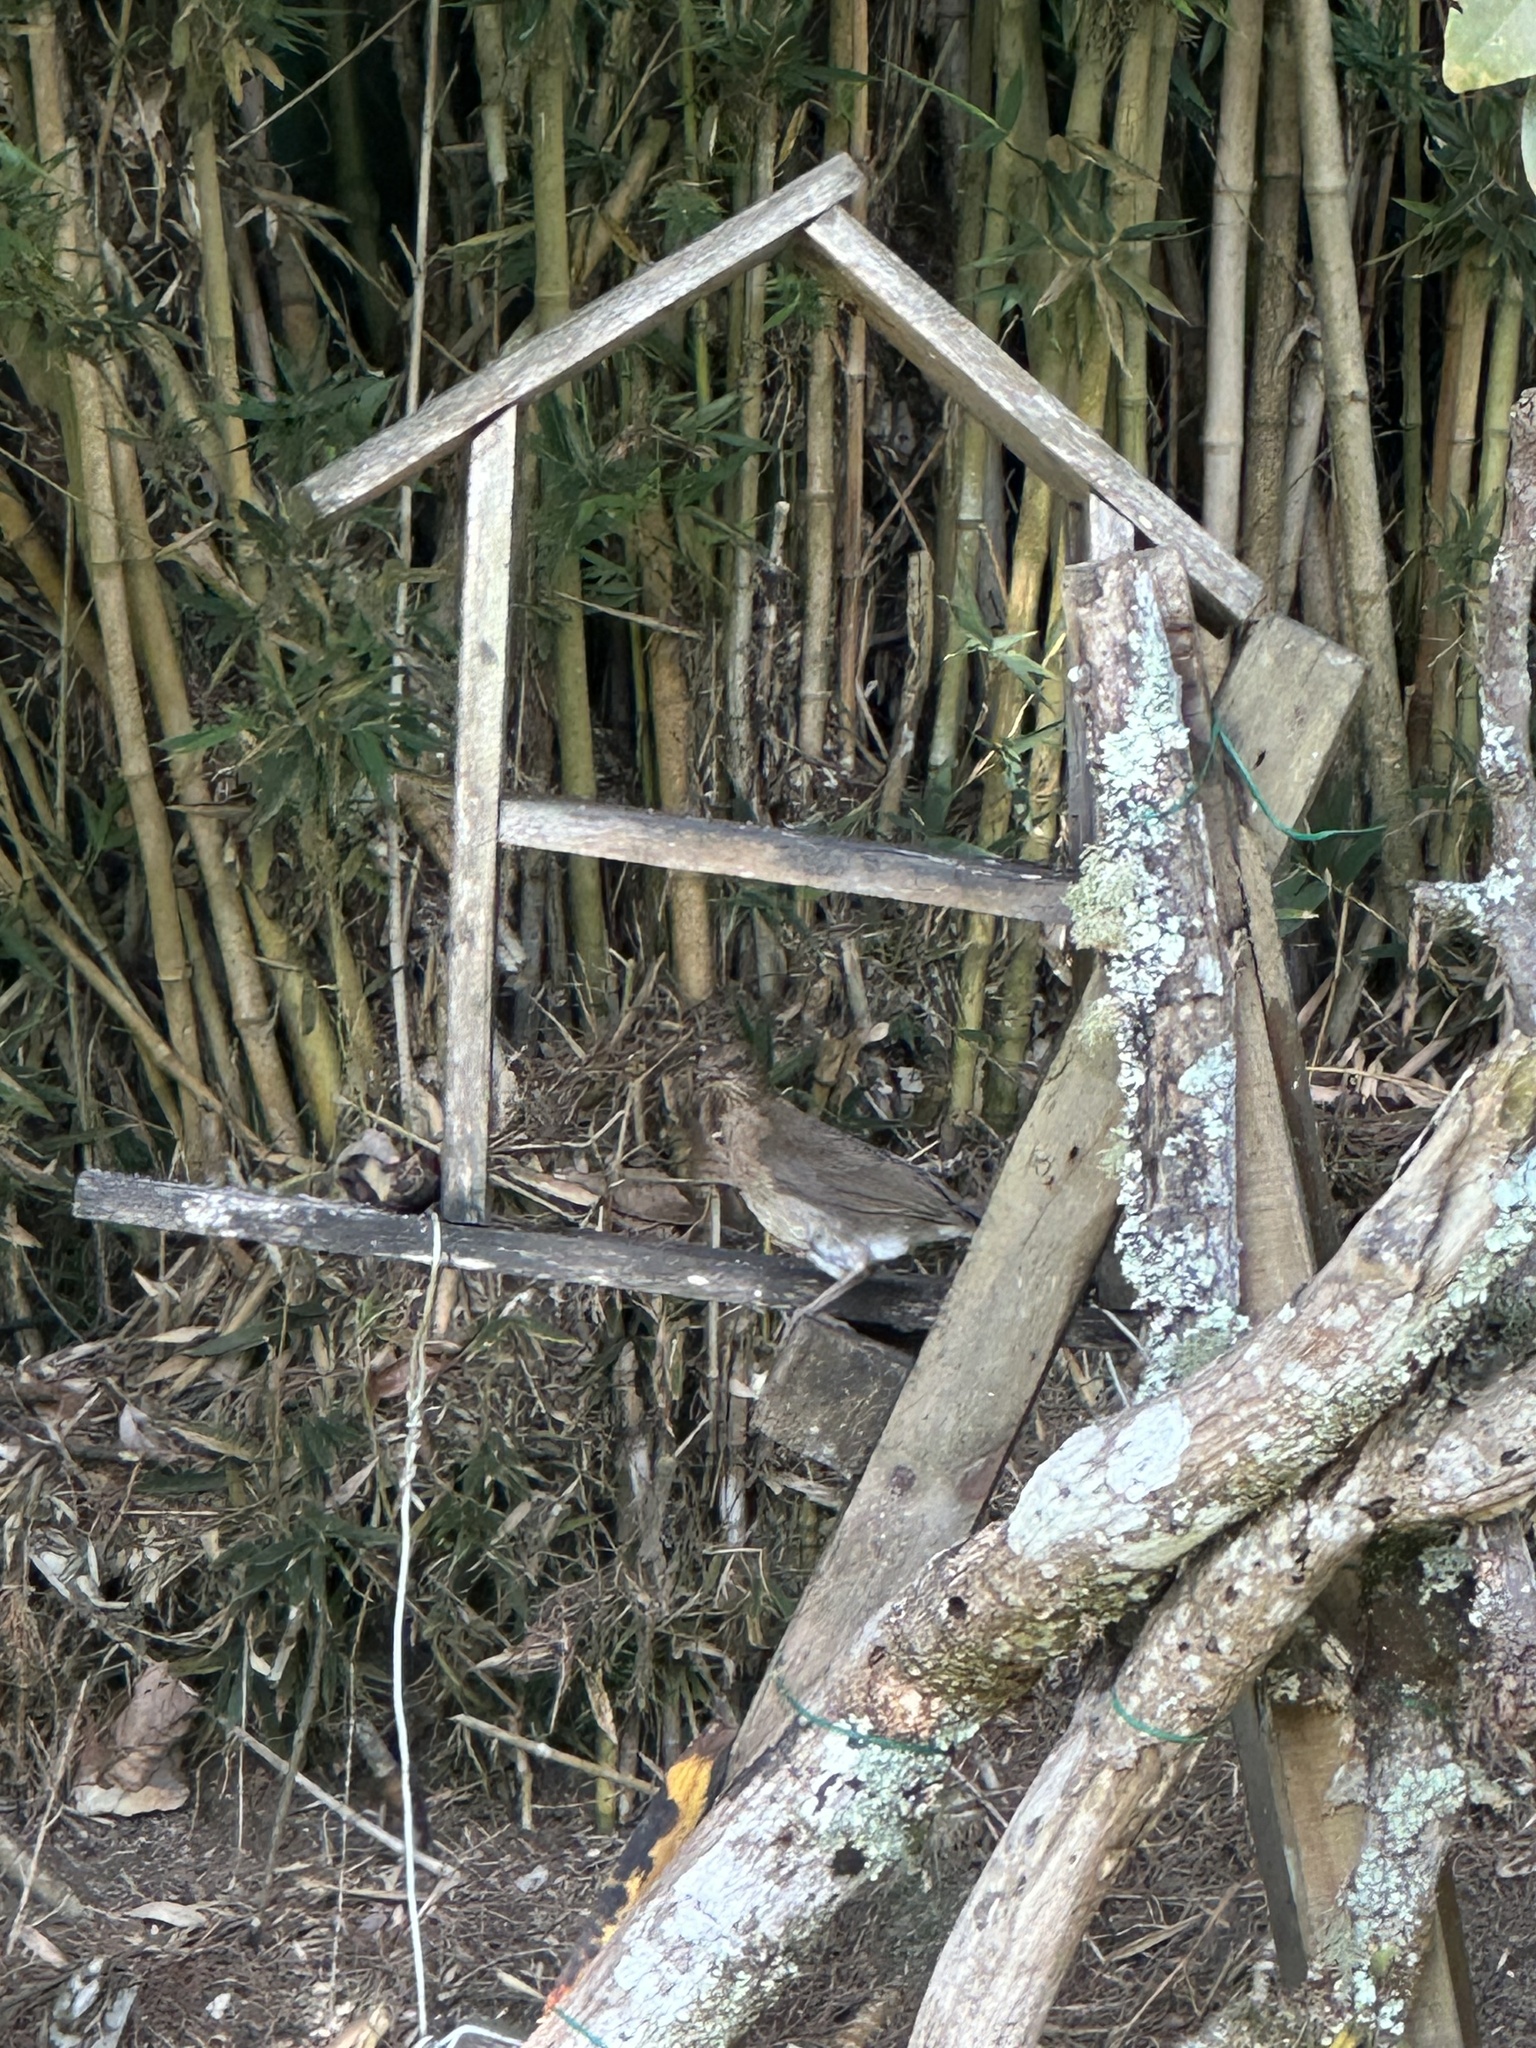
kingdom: Animalia
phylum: Chordata
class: Aves
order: Passeriformes
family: Turdidae
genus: Turdus
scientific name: Turdus ignobilis
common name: Black-billed thrush
